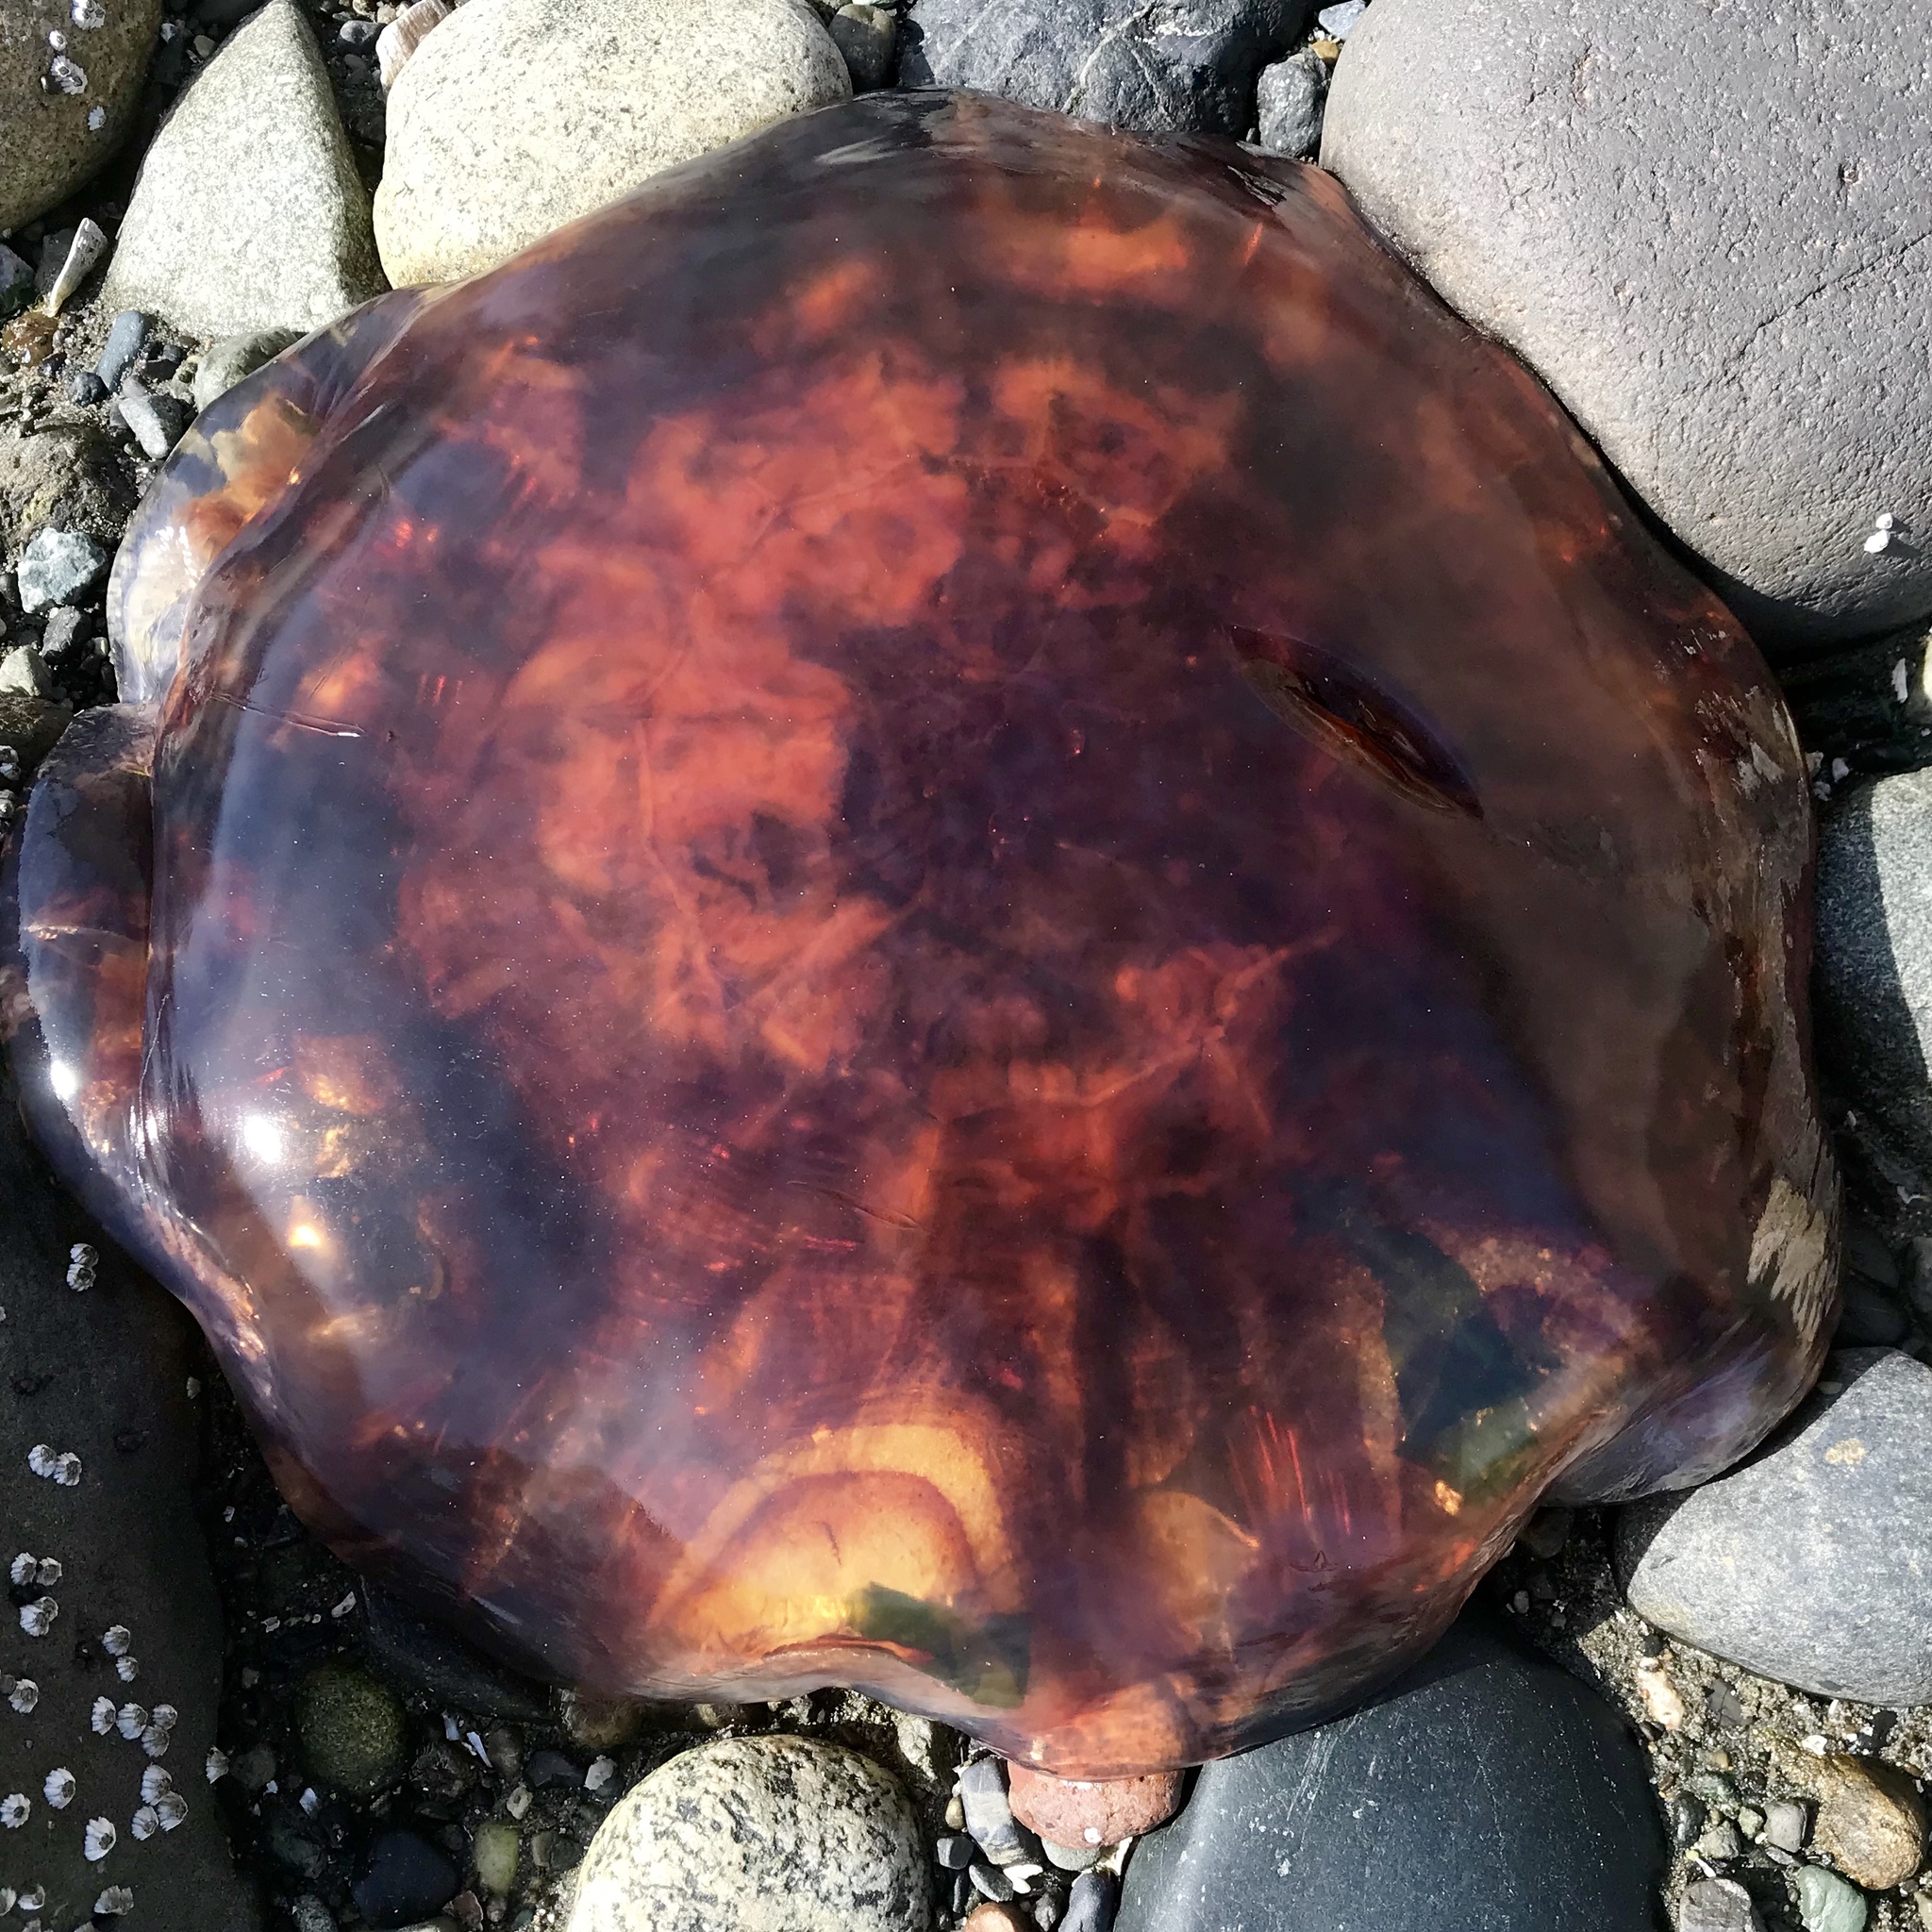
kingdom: Animalia
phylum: Cnidaria
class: Scyphozoa
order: Semaeostomeae
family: Cyaneidae
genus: Cyanea
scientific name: Cyanea ferruginea
